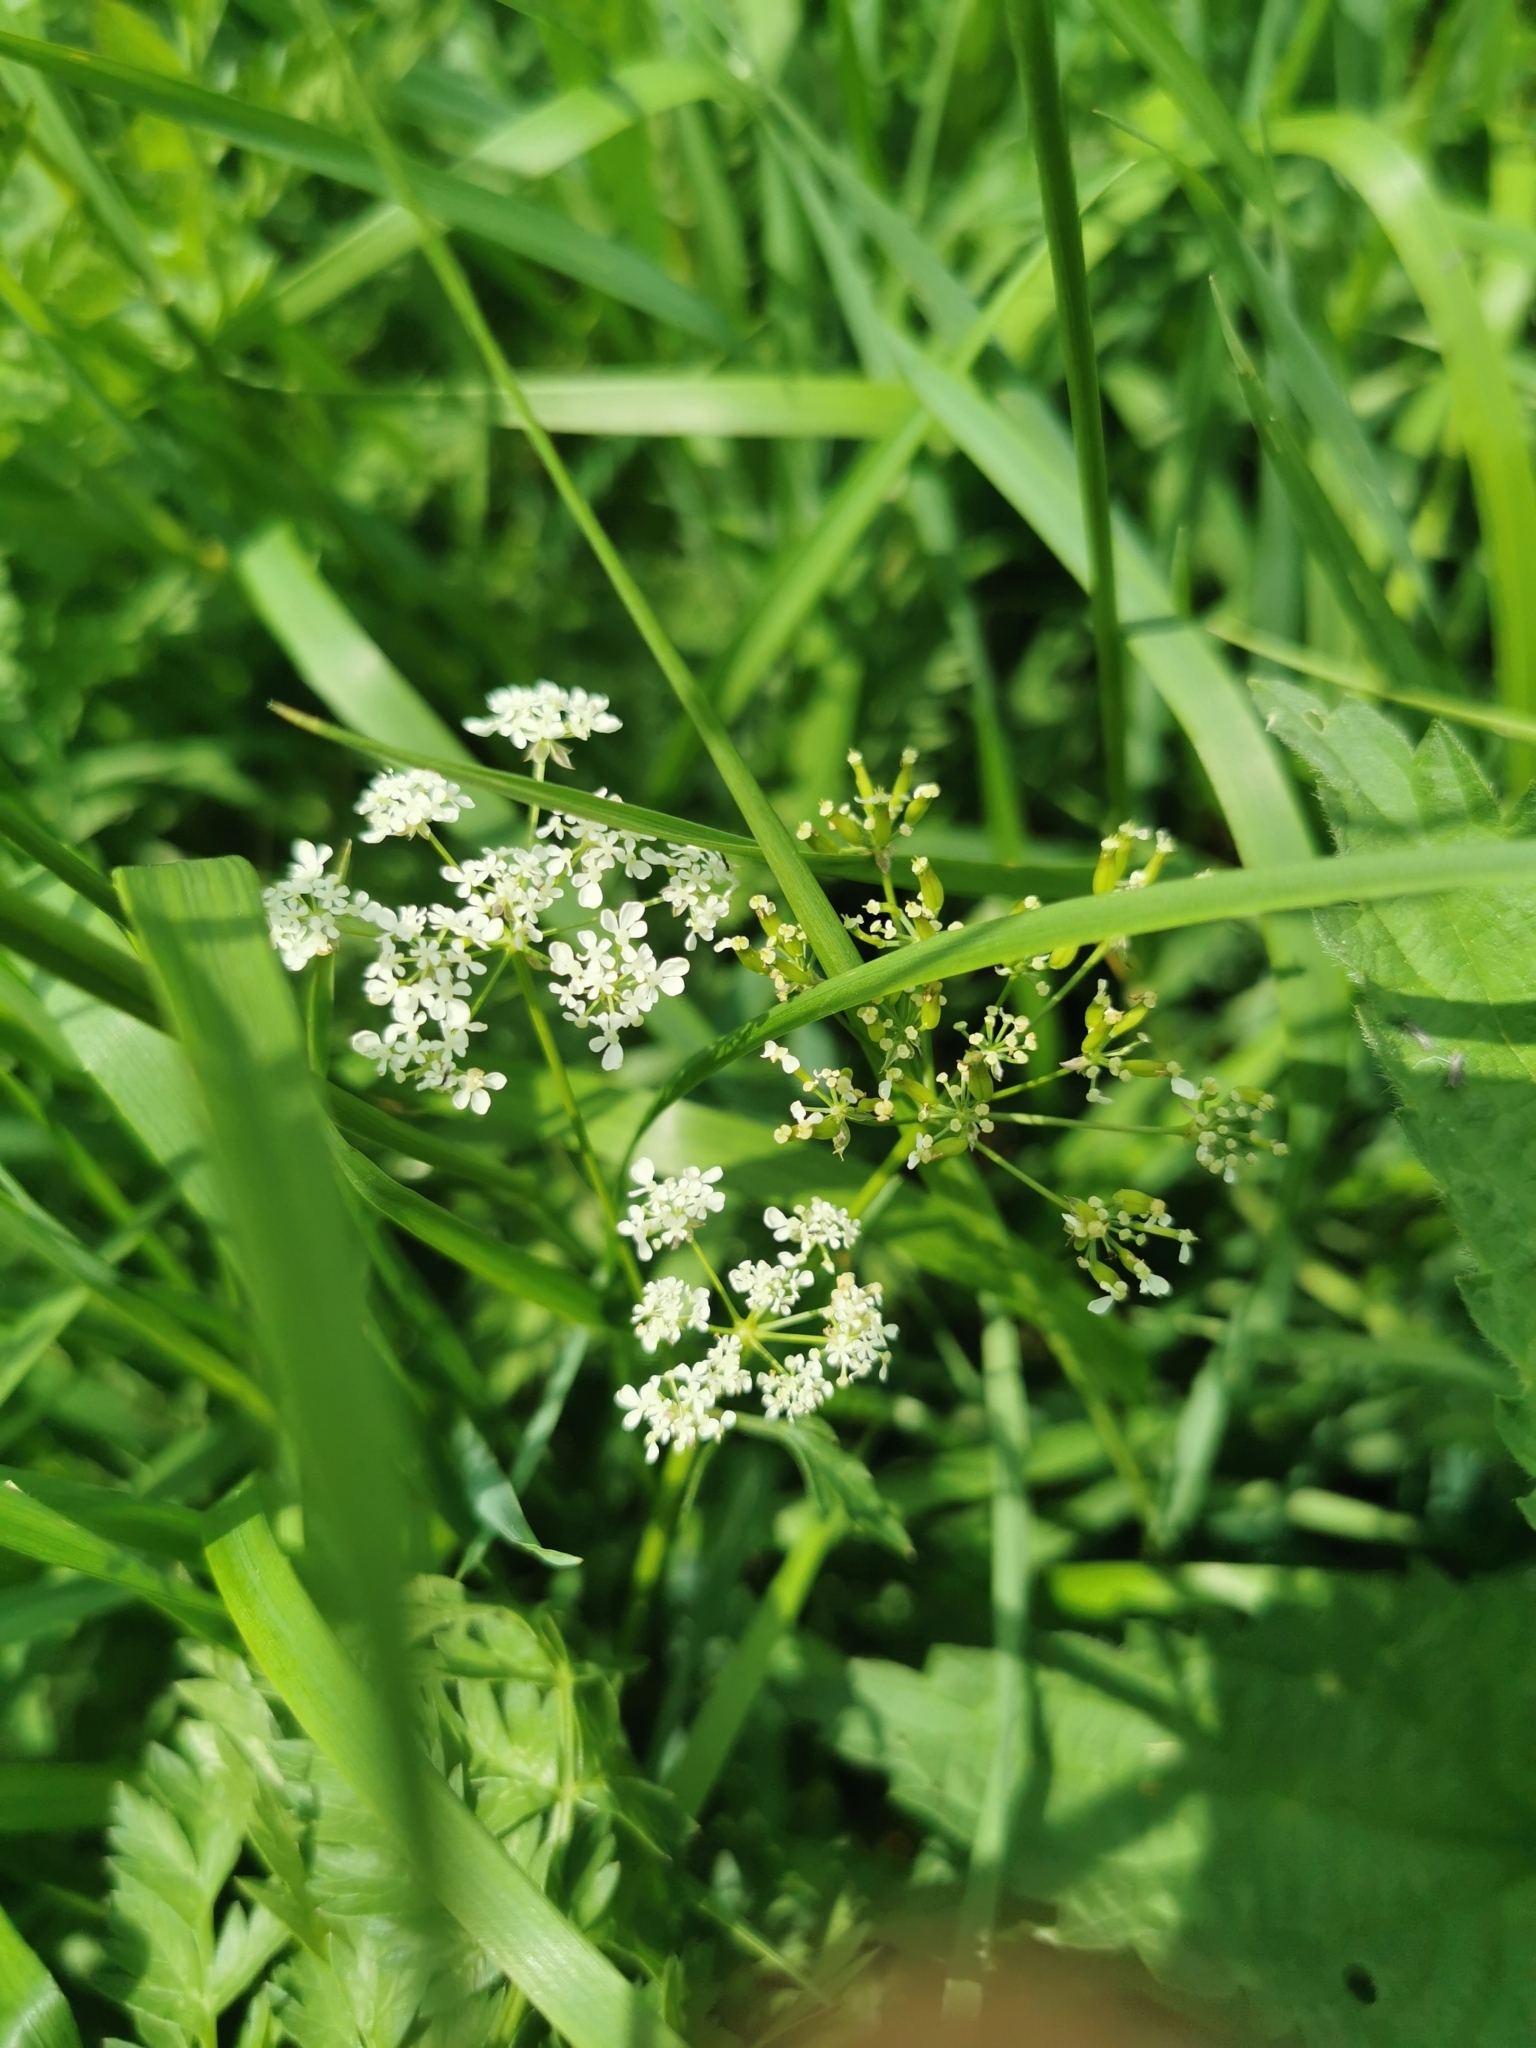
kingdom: Plantae
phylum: Tracheophyta
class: Magnoliopsida
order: Apiales
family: Apiaceae
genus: Anthriscus
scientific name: Anthriscus sylvestris
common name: Cow parsley
